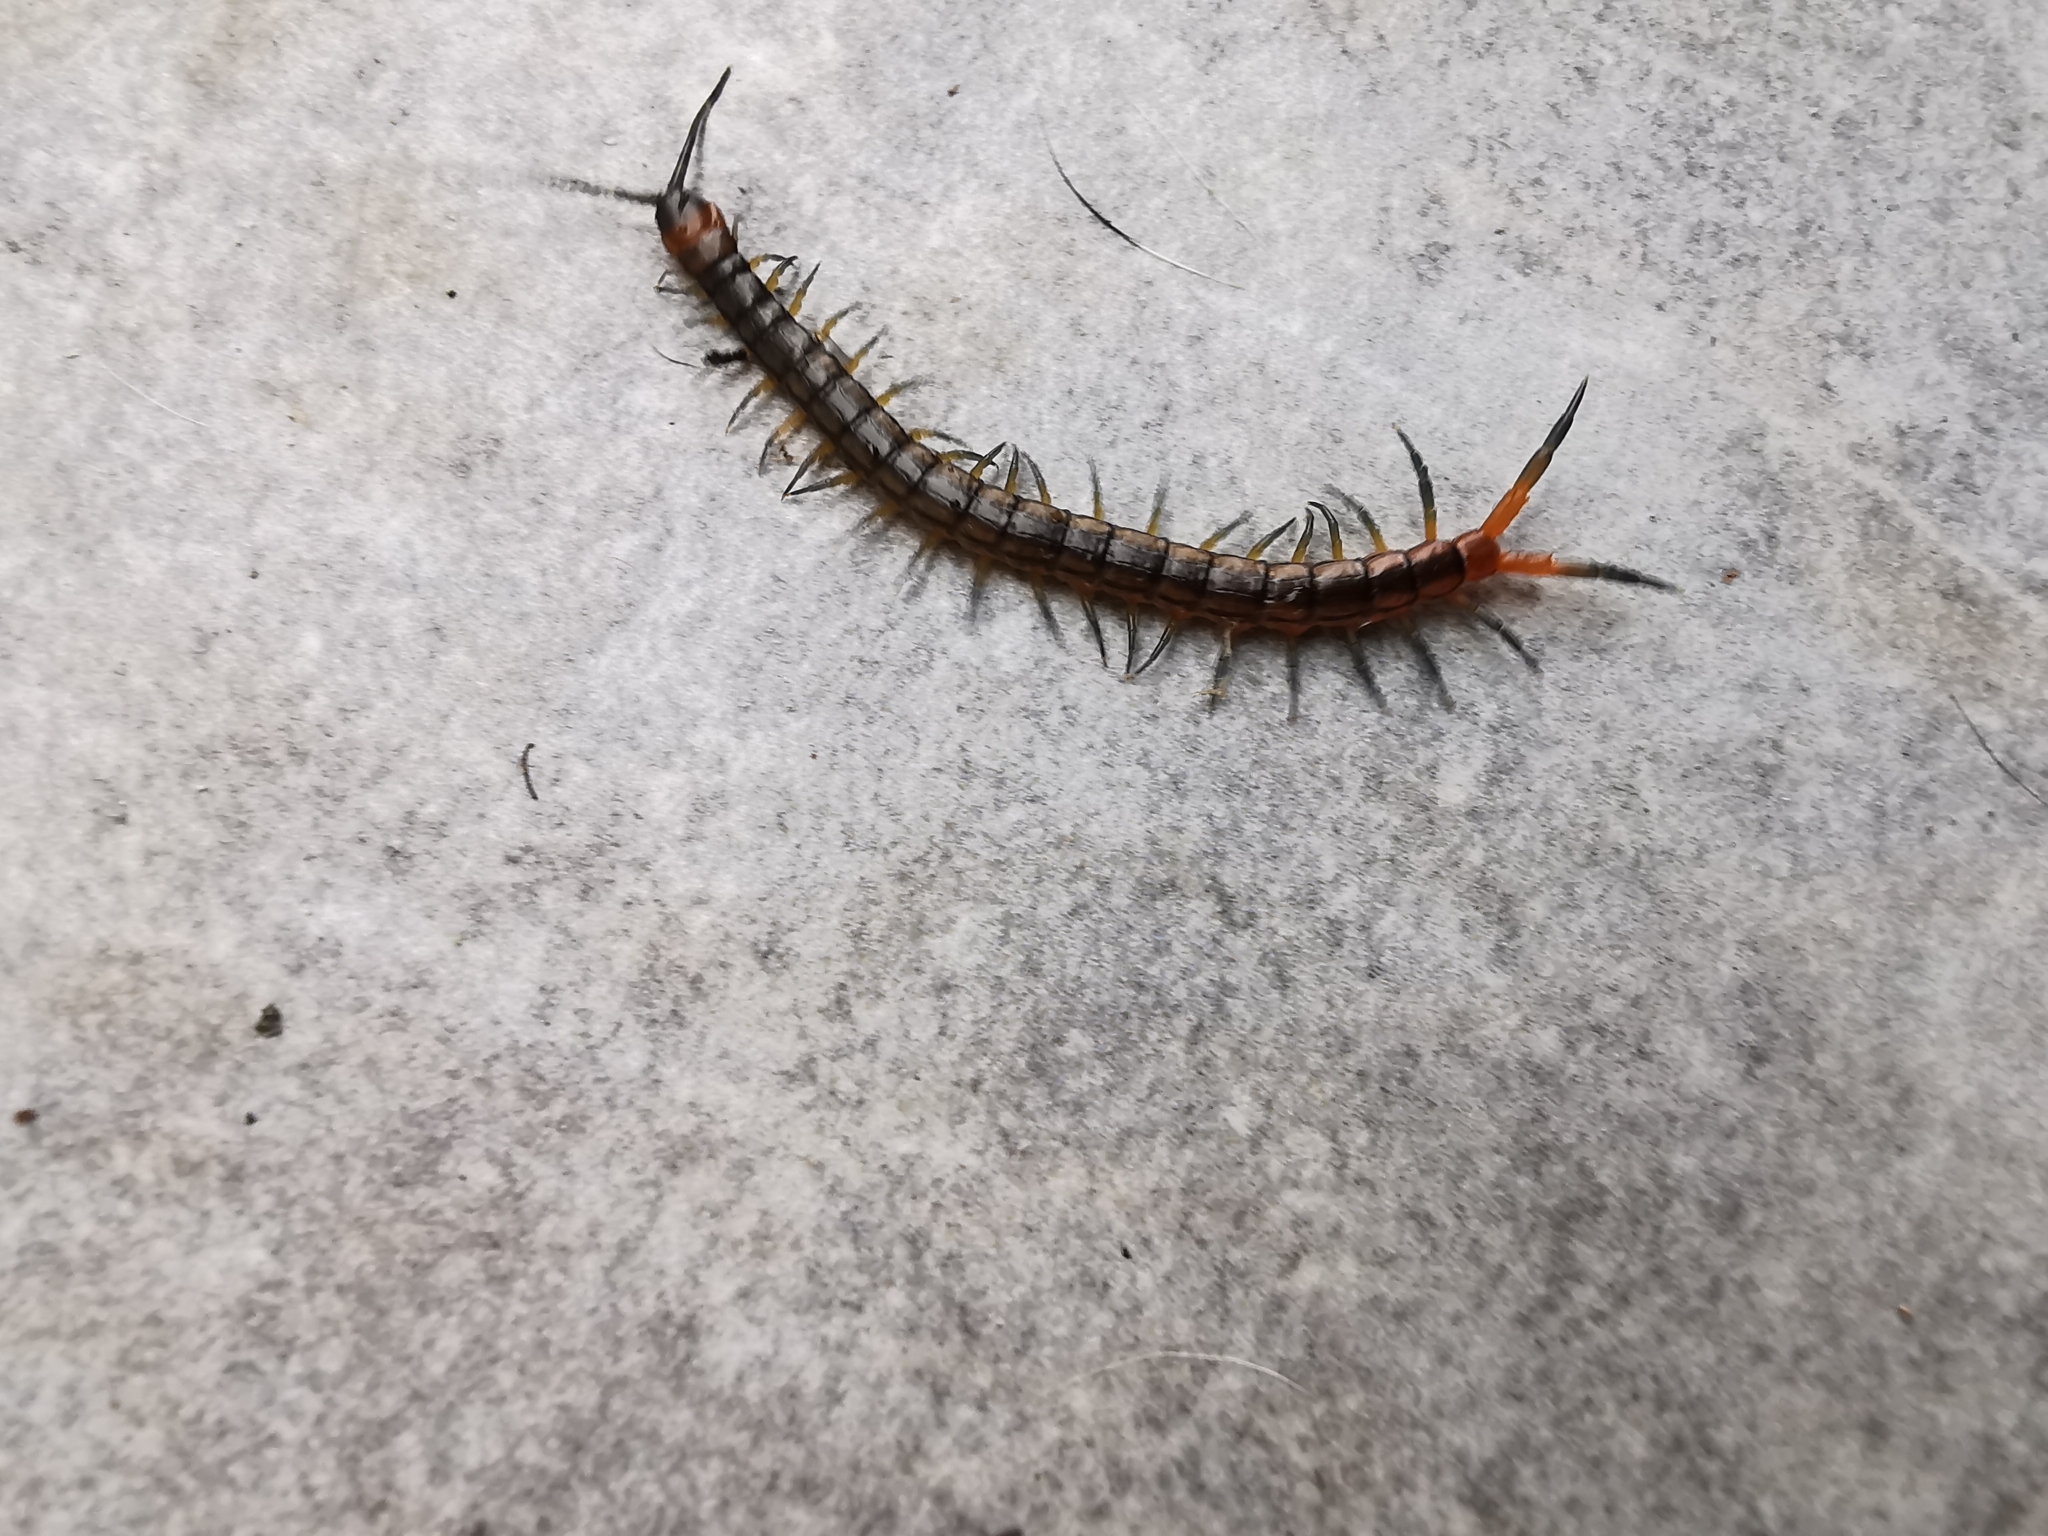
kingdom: Animalia
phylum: Arthropoda
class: Chilopoda
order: Scolopendromorpha
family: Scolopendridae
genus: Scolopendra
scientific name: Scolopendra cingulata
